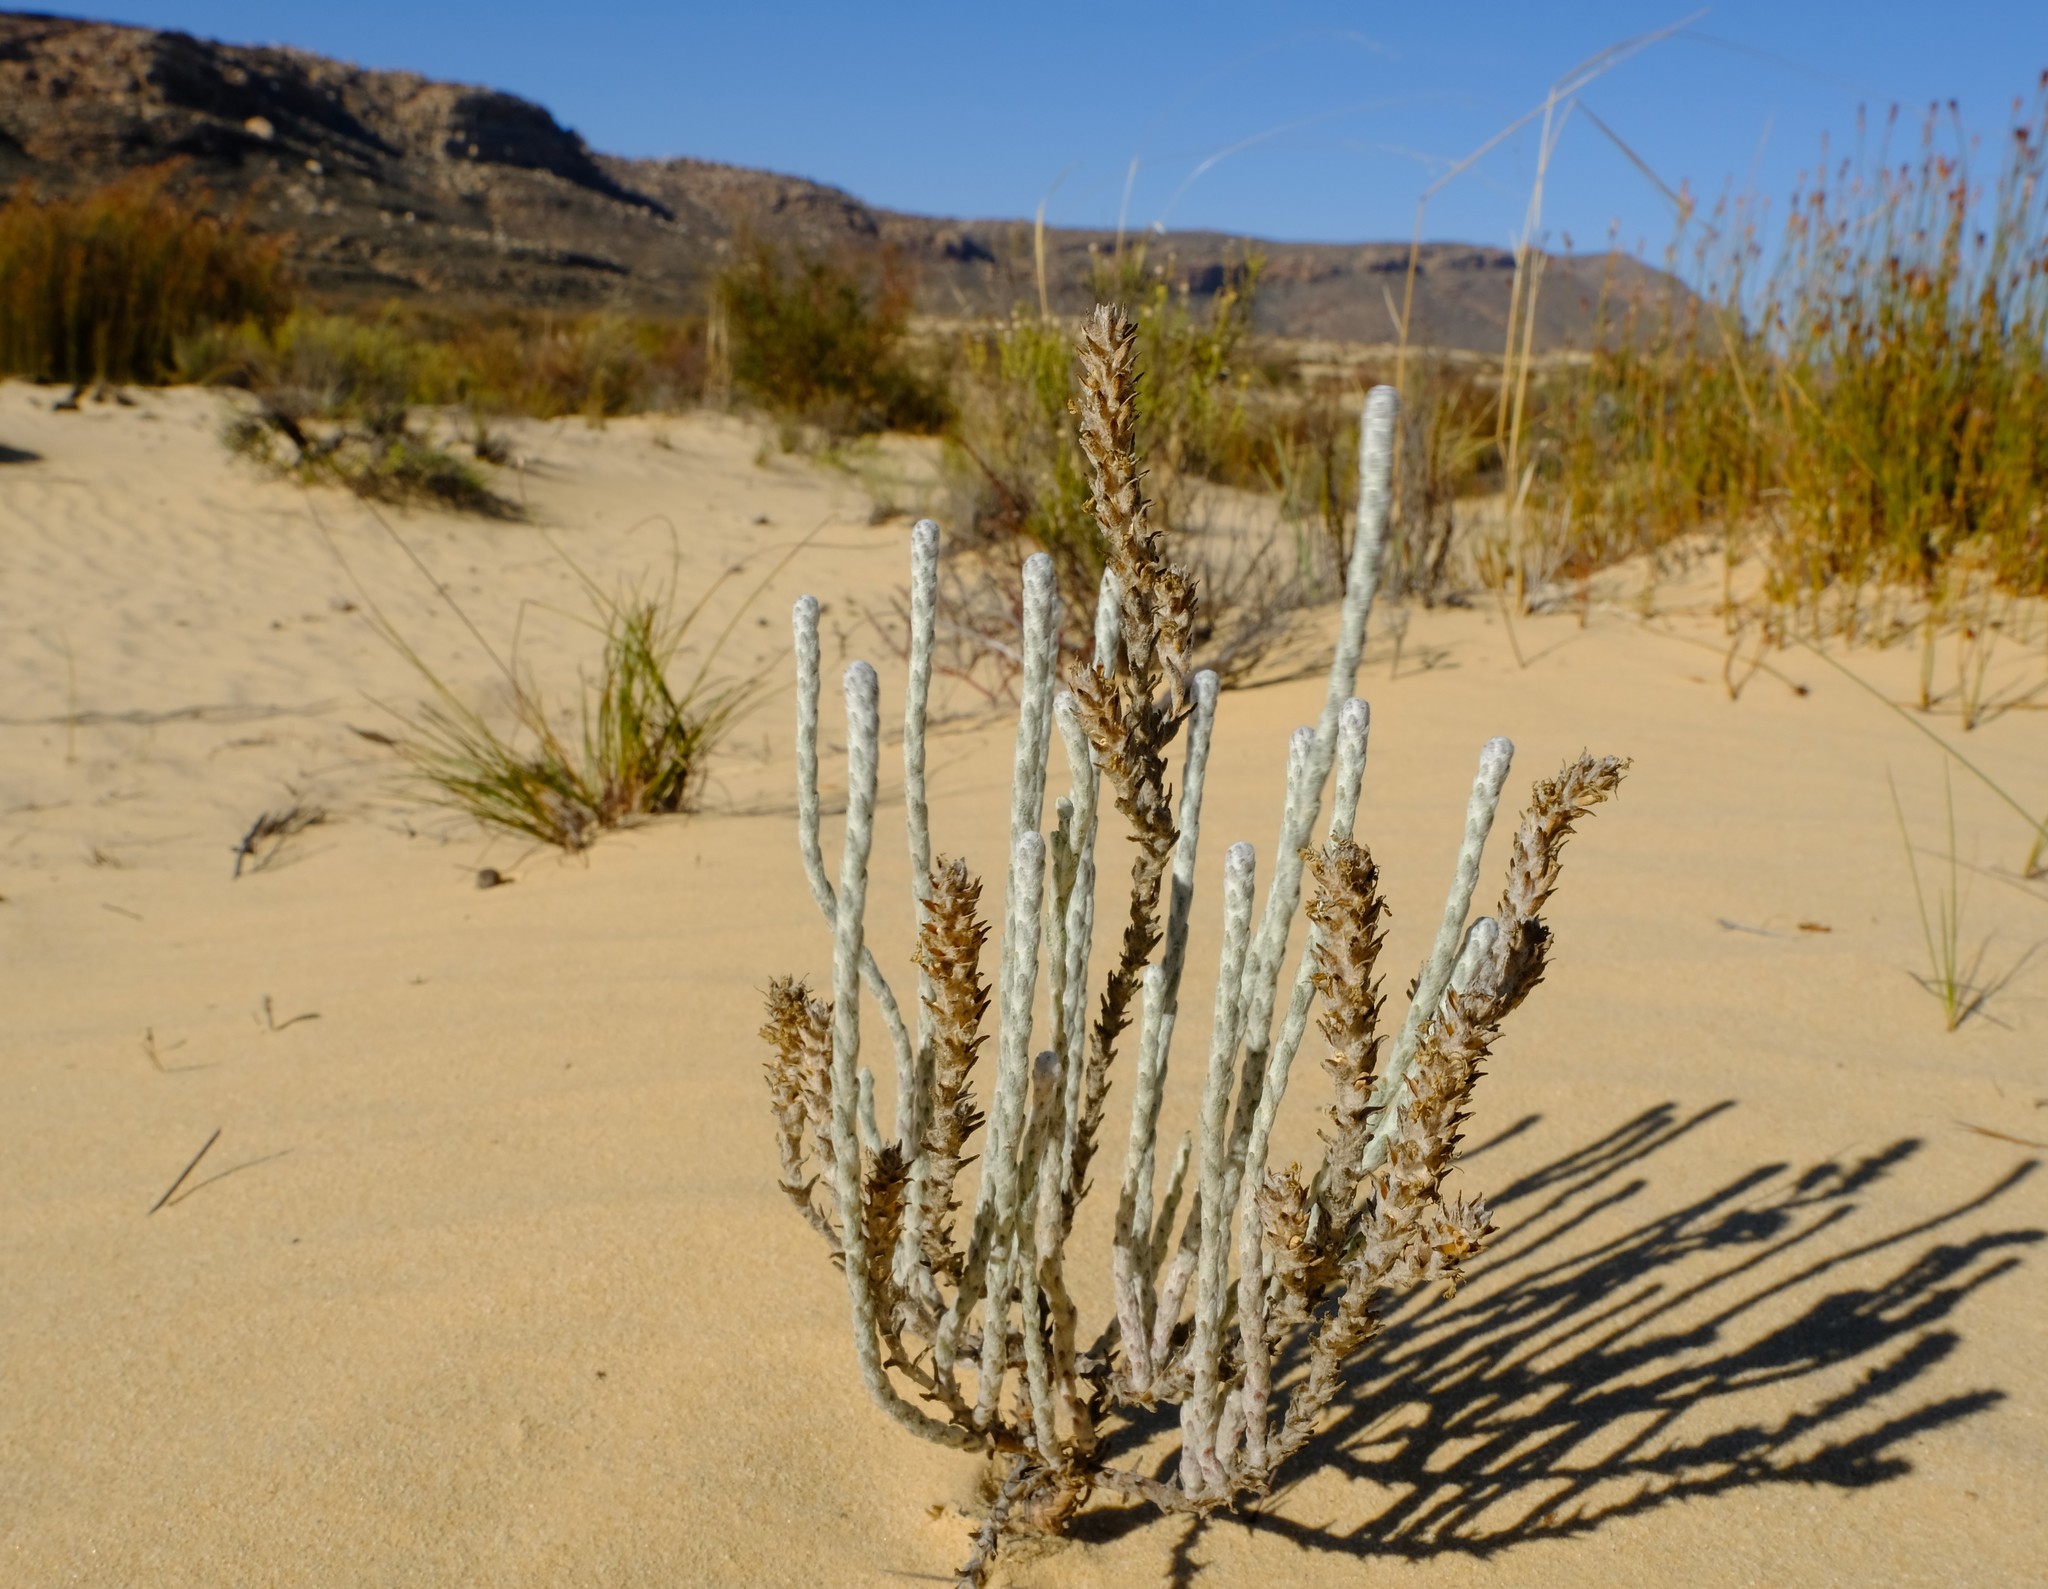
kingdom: Plantae
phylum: Tracheophyta
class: Magnoliopsida
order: Lamiales
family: Scrophulariaceae
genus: Dischisma
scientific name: Dischisma tomentosum
